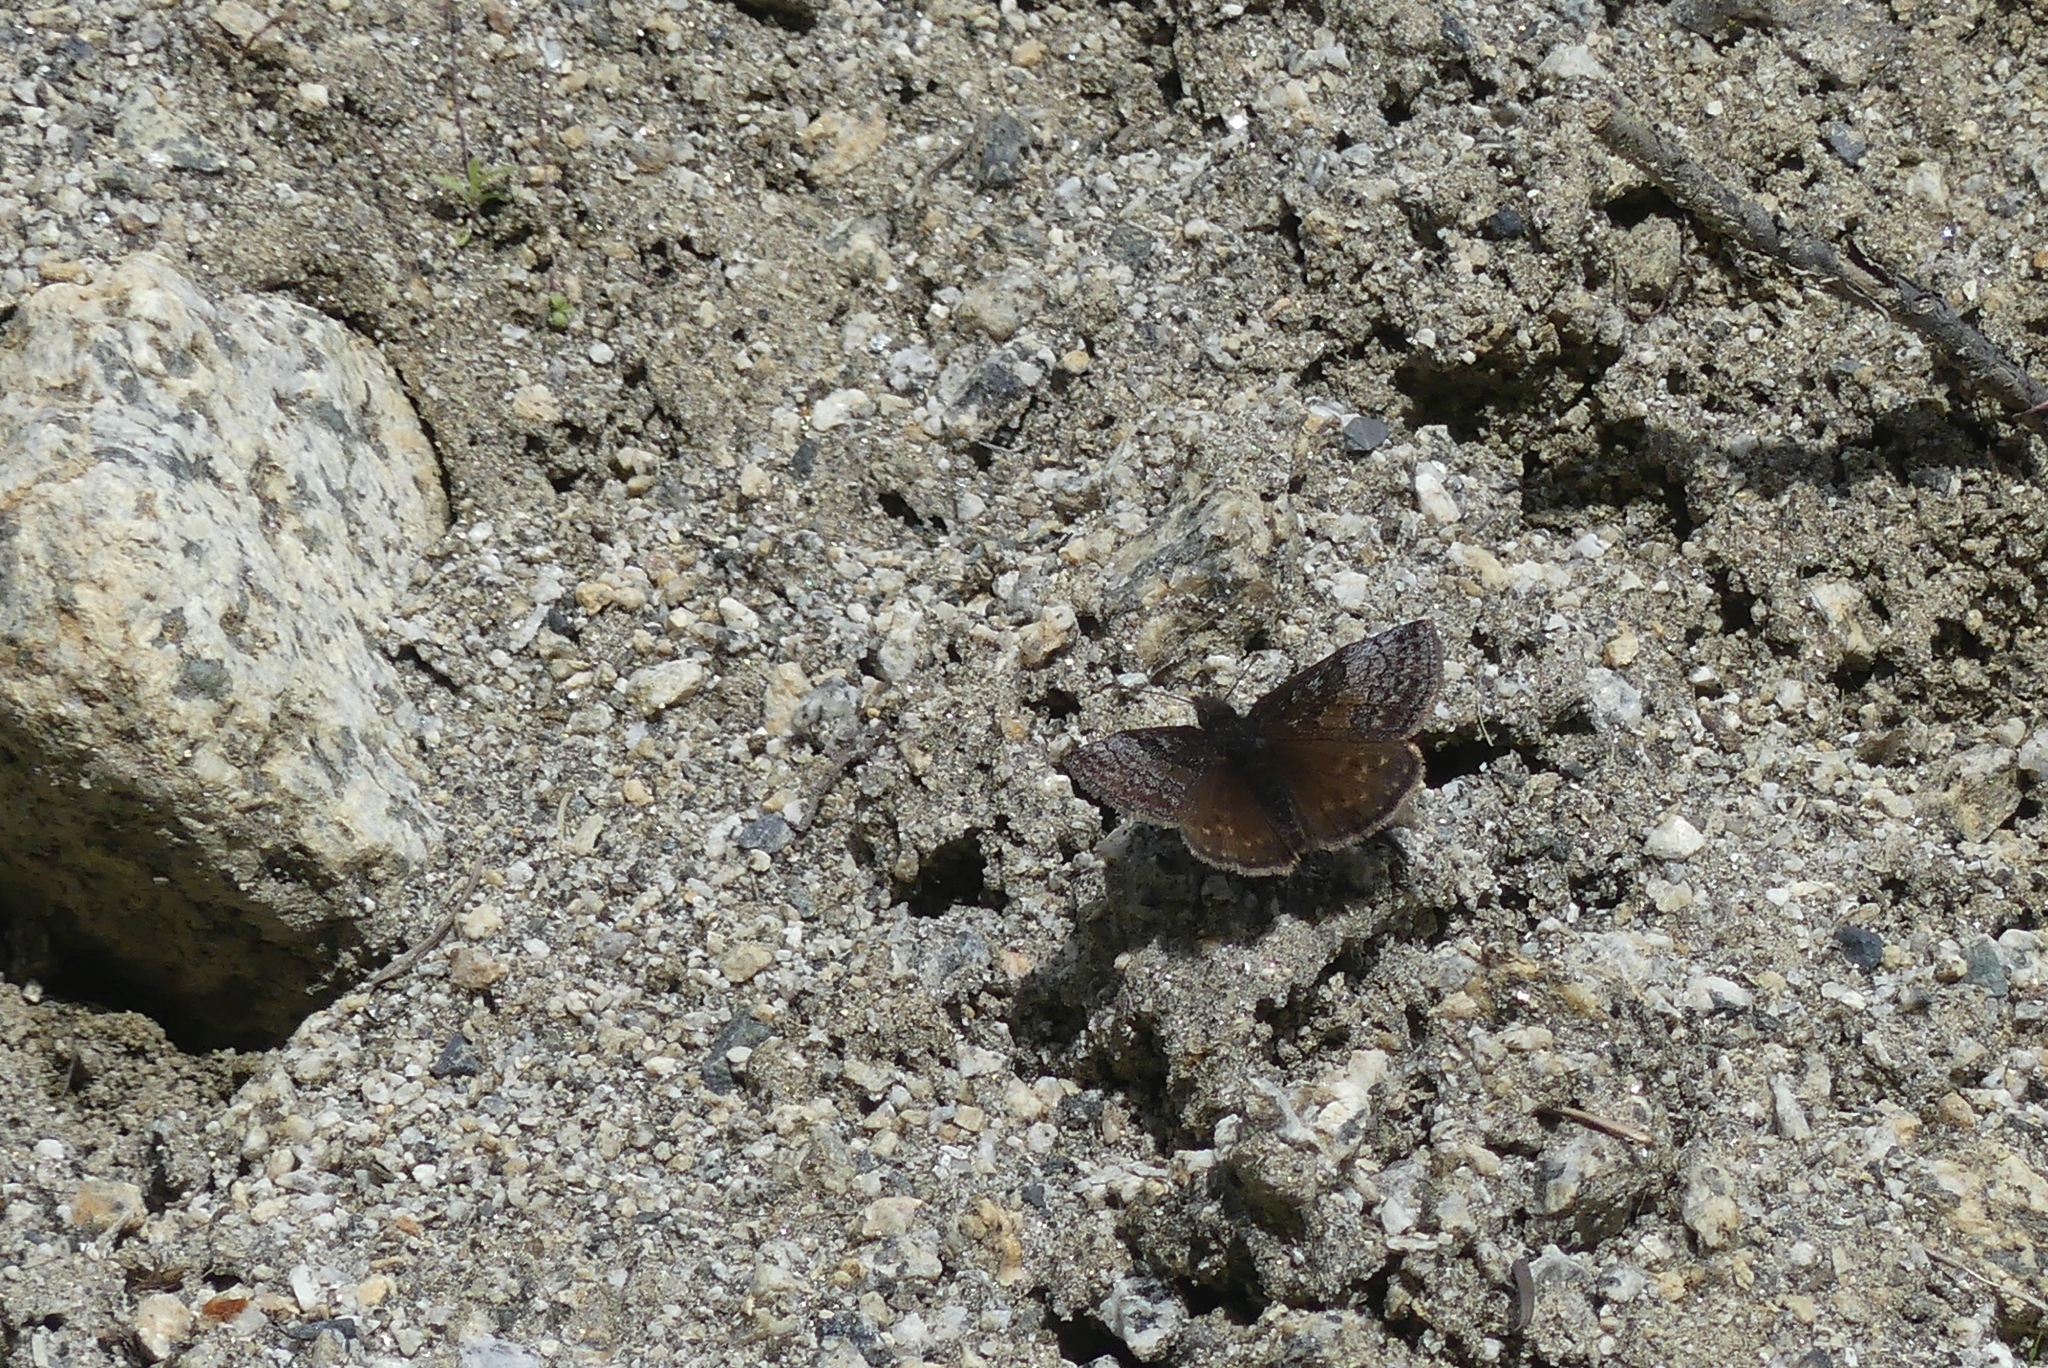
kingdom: Animalia
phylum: Arthropoda
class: Insecta
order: Lepidoptera
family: Hesperiidae
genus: Erynnis
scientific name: Erynnis icelus
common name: Dreamy duskywing
